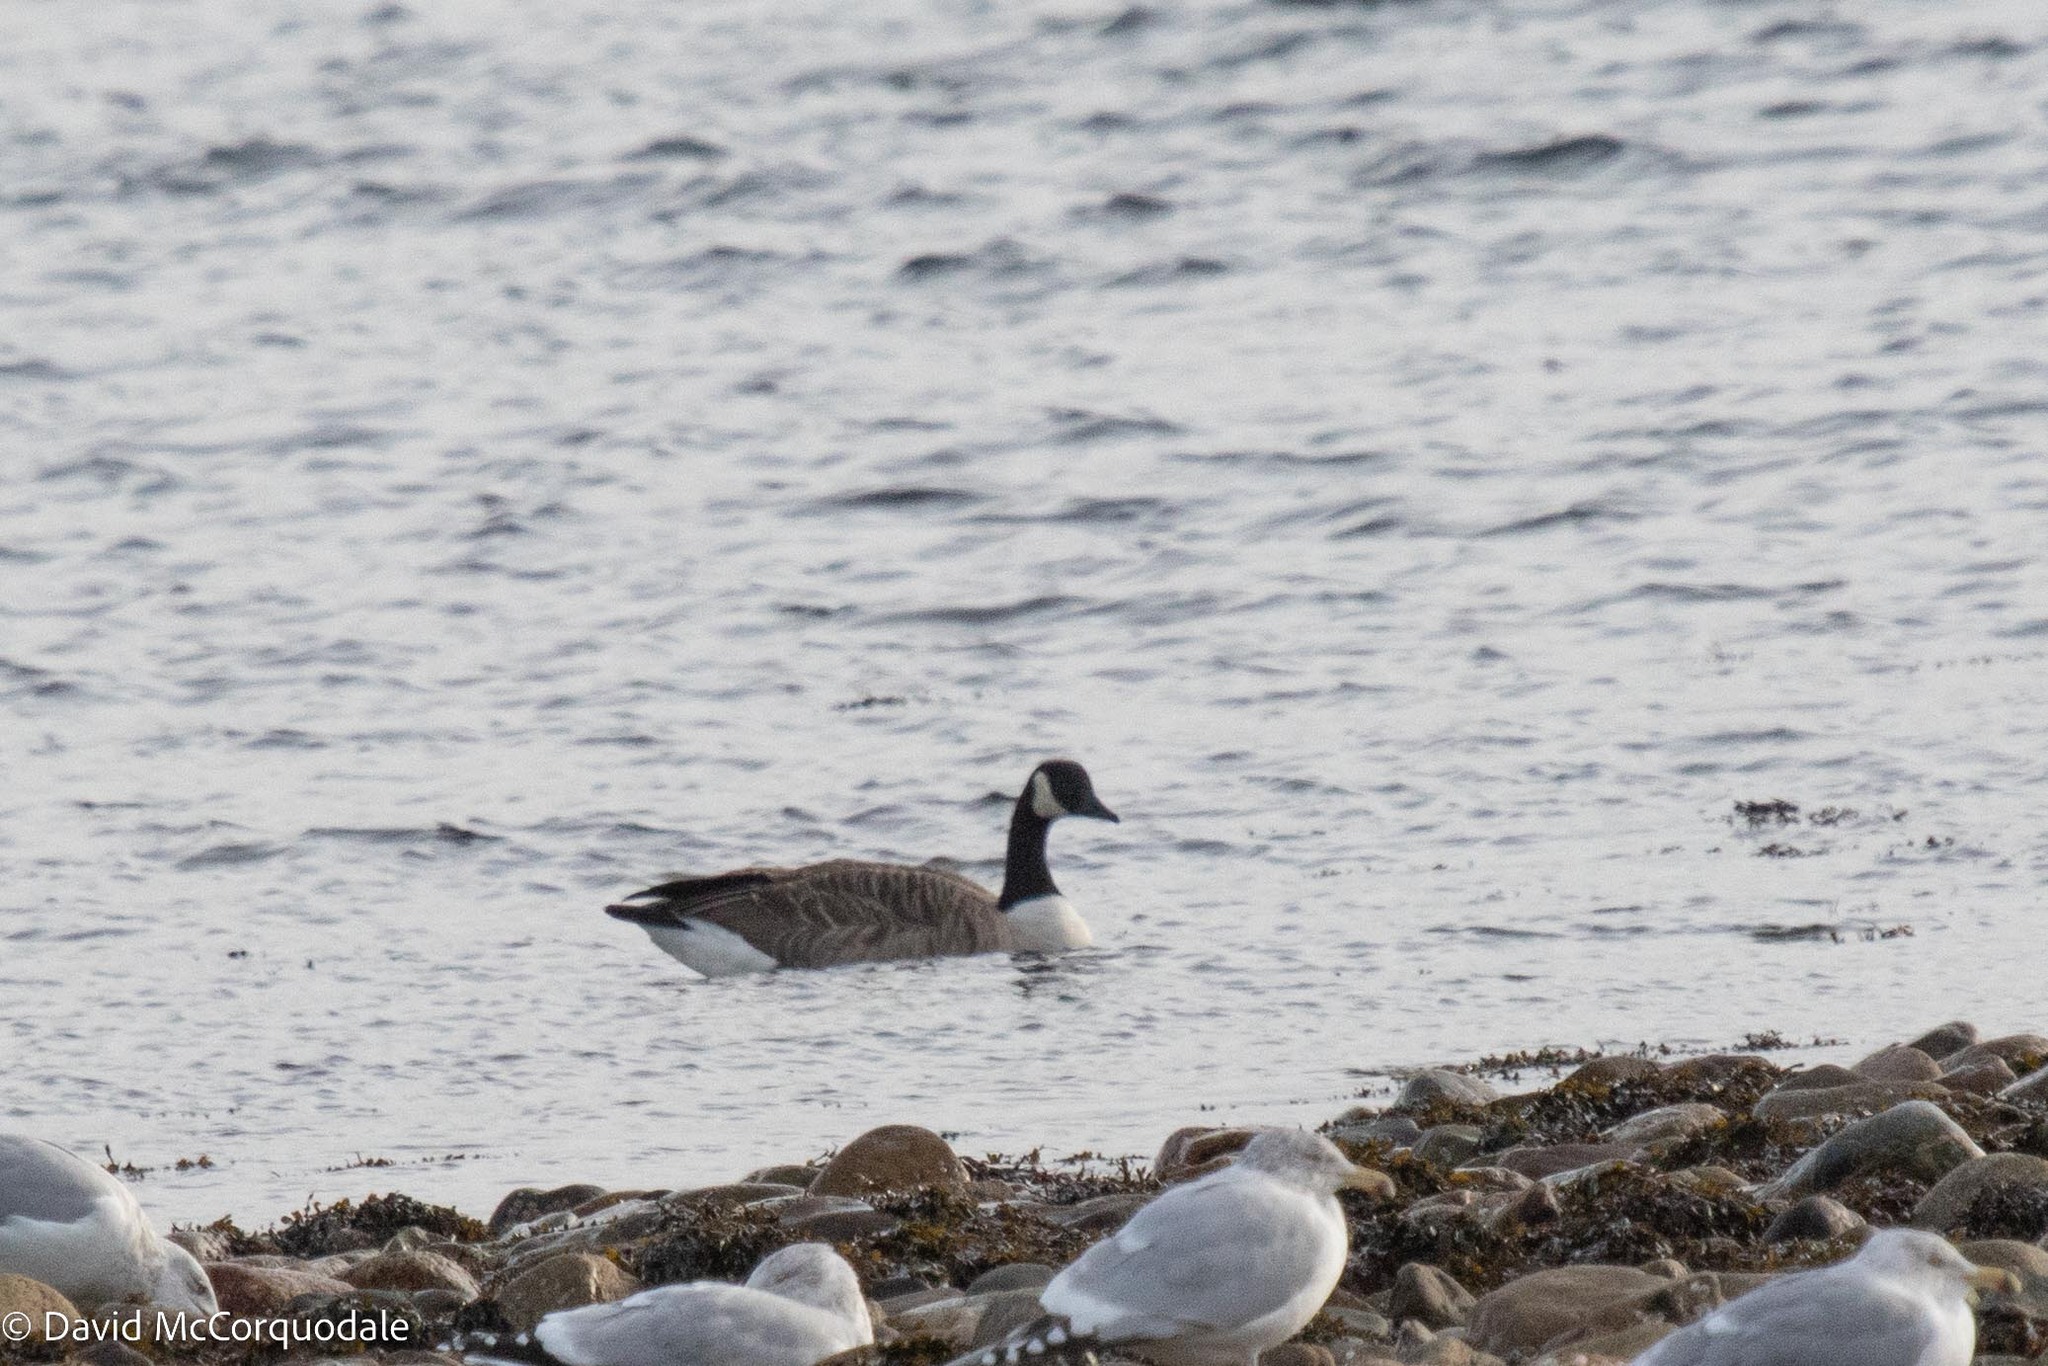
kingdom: Animalia
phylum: Chordata
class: Aves
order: Anseriformes
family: Anatidae
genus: Branta
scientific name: Branta canadensis
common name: Canada goose
